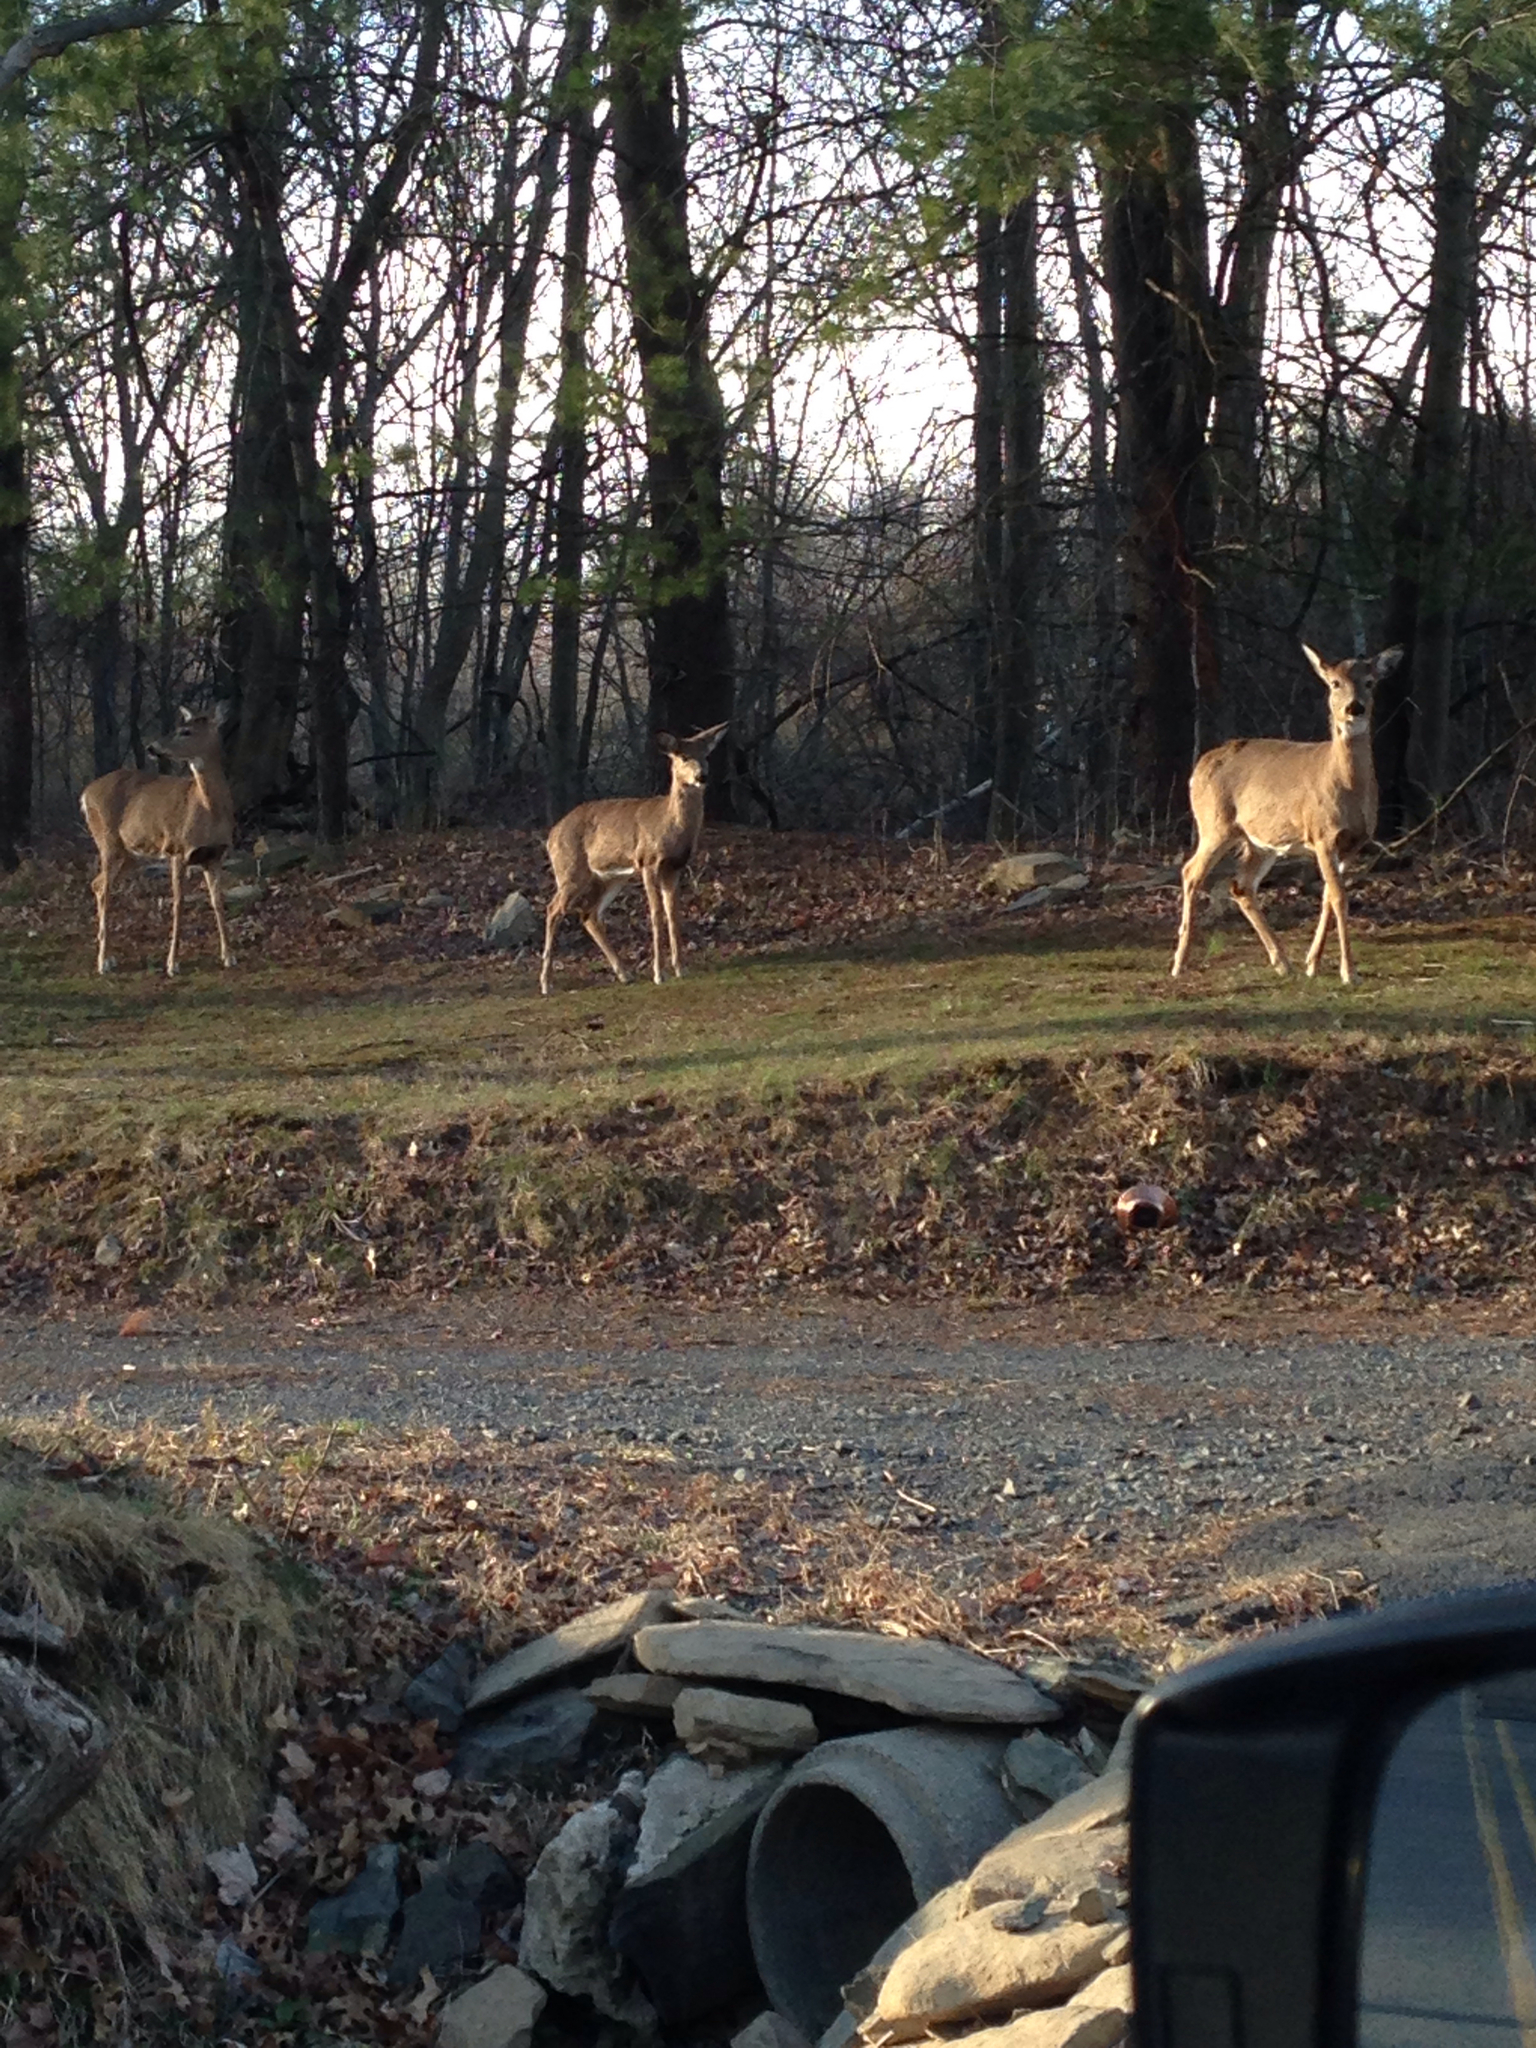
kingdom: Animalia
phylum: Chordata
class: Mammalia
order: Artiodactyla
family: Cervidae
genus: Odocoileus
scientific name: Odocoileus virginianus
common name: White-tailed deer
